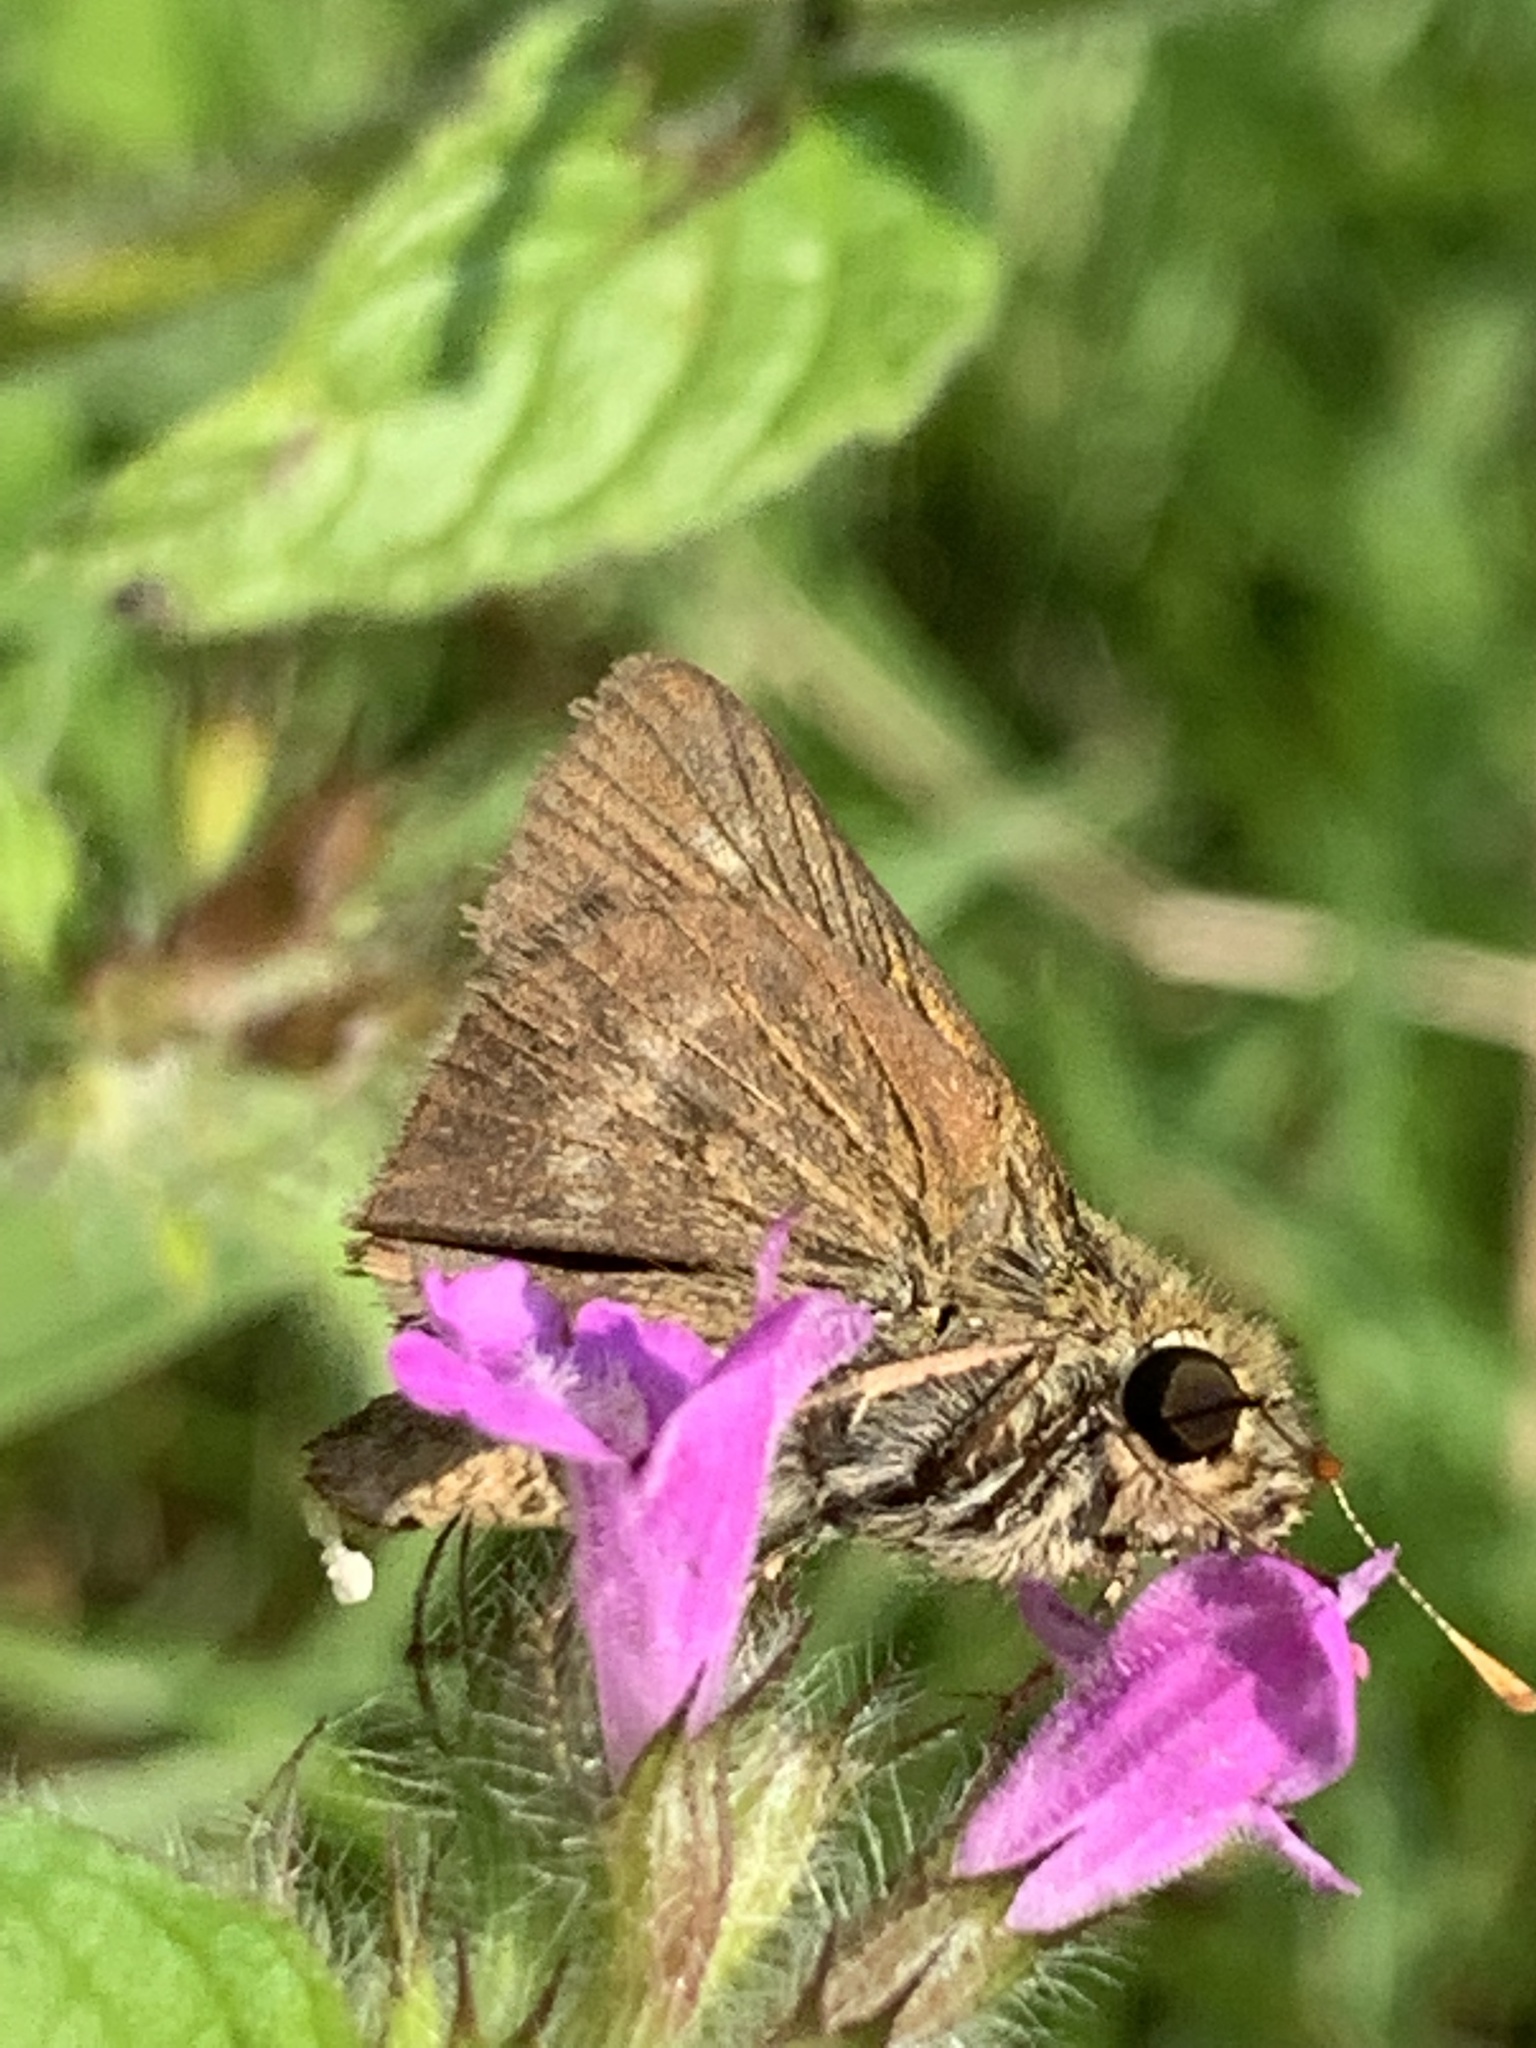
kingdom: Animalia
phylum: Arthropoda
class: Insecta
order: Lepidoptera
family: Hesperiidae
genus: Polites
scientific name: Polites egeremet
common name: Northern broken-dash
